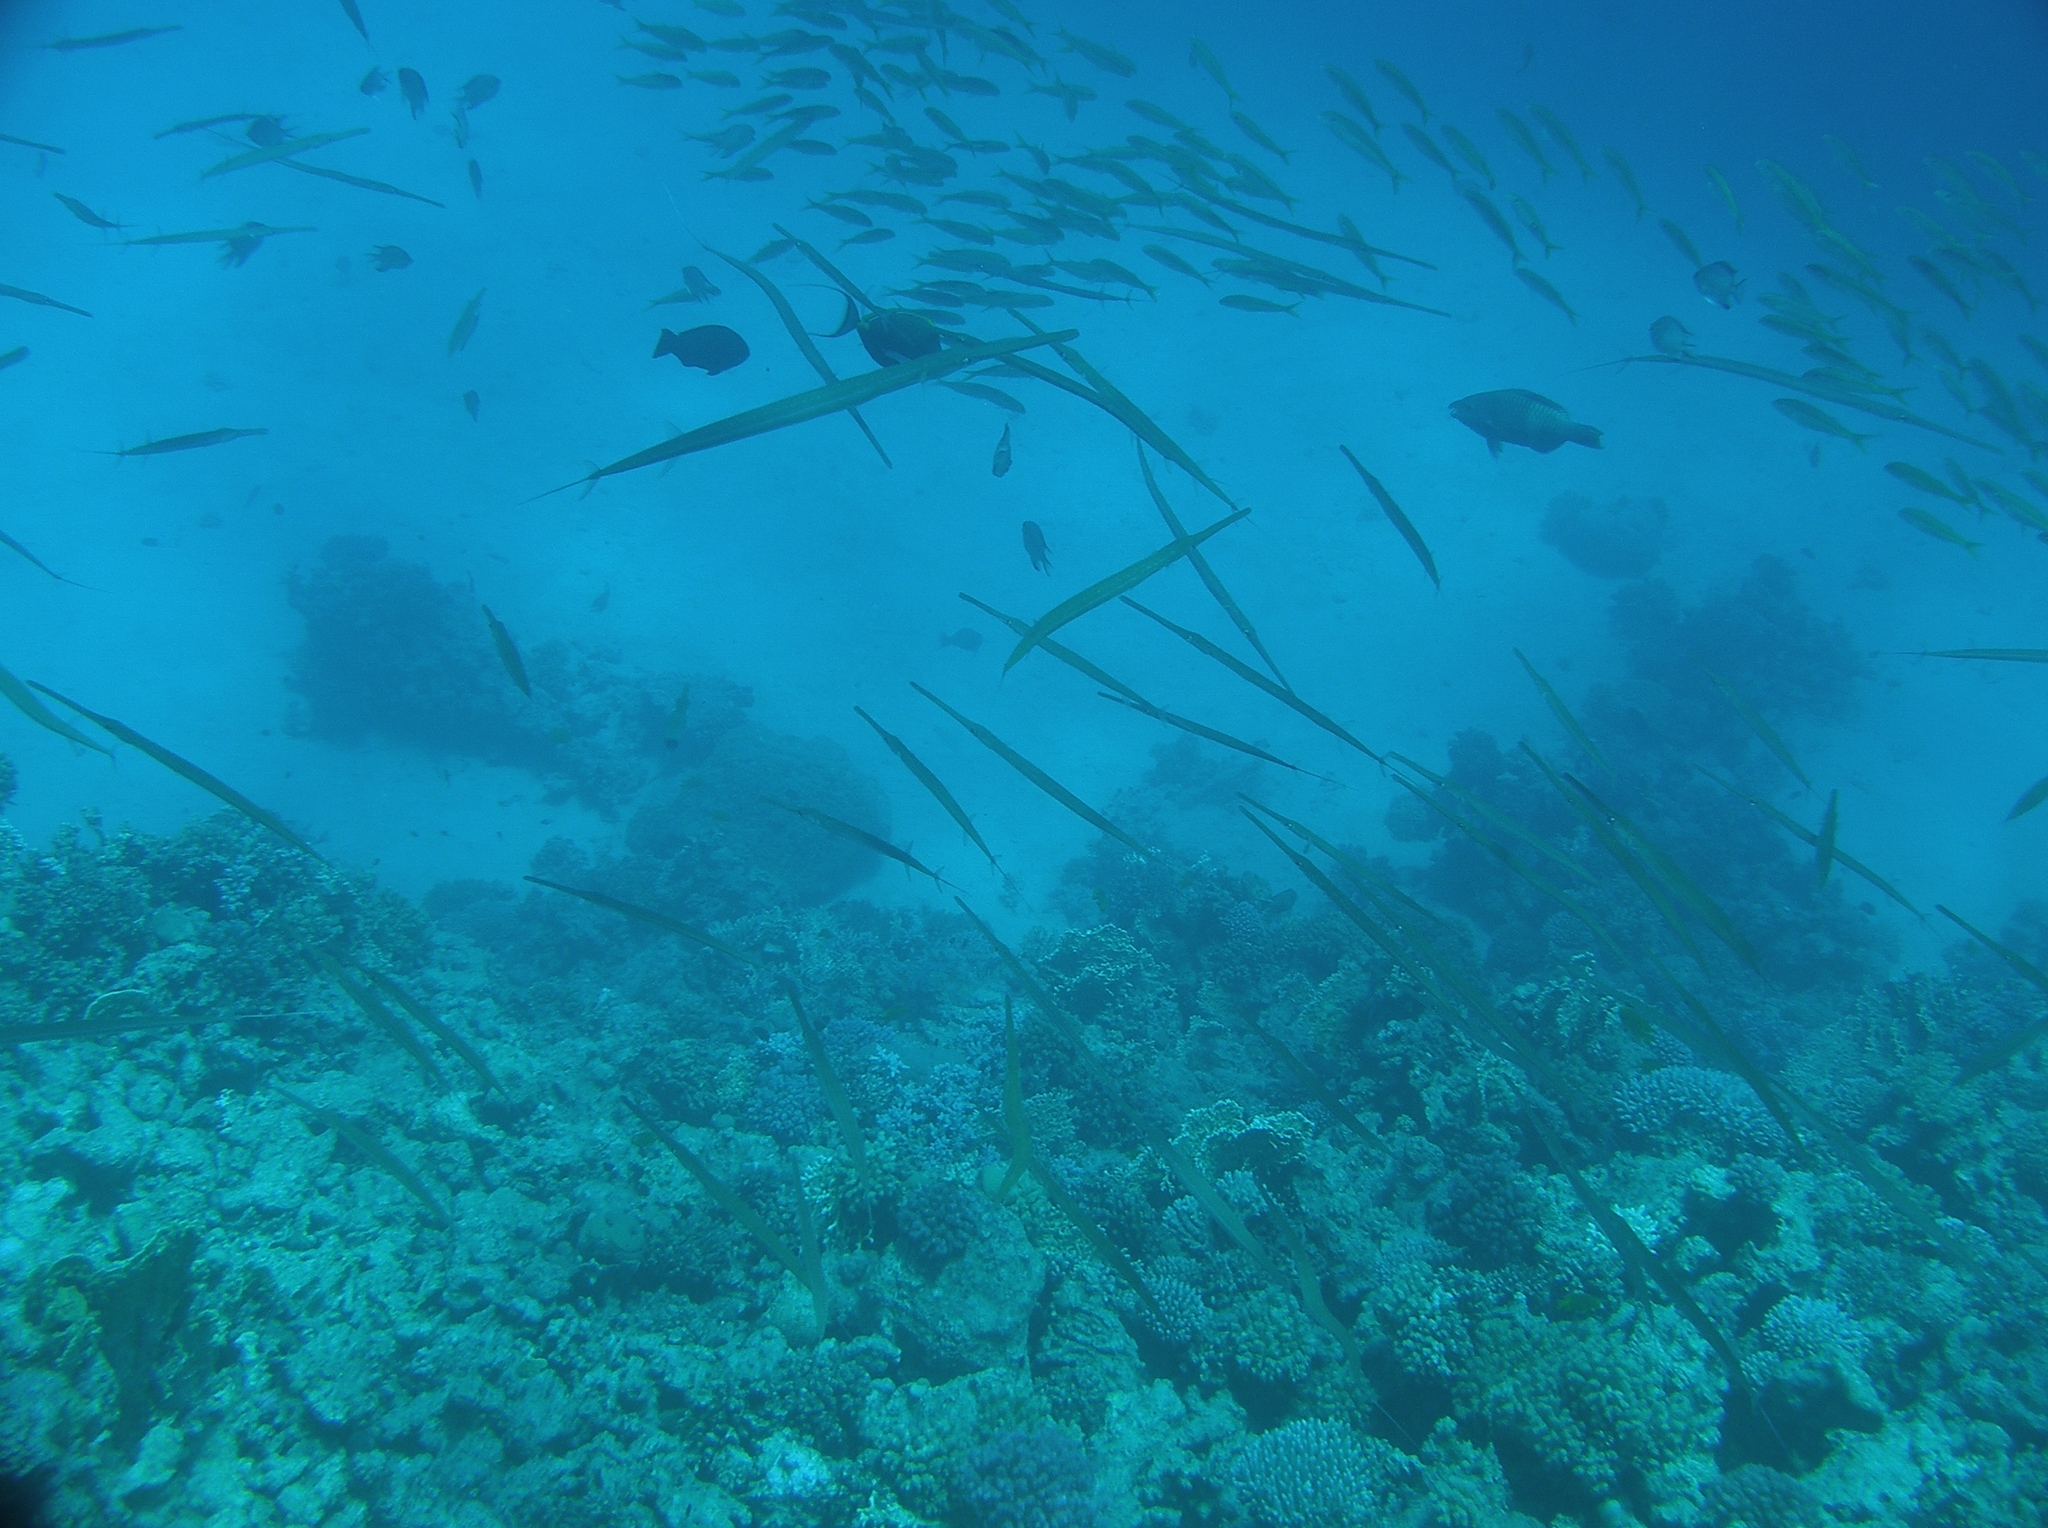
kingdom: Animalia
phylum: Chordata
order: Syngnathiformes
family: Fistulariidae
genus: Fistularia
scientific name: Fistularia commersonii
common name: Bluespotted cornetfish
